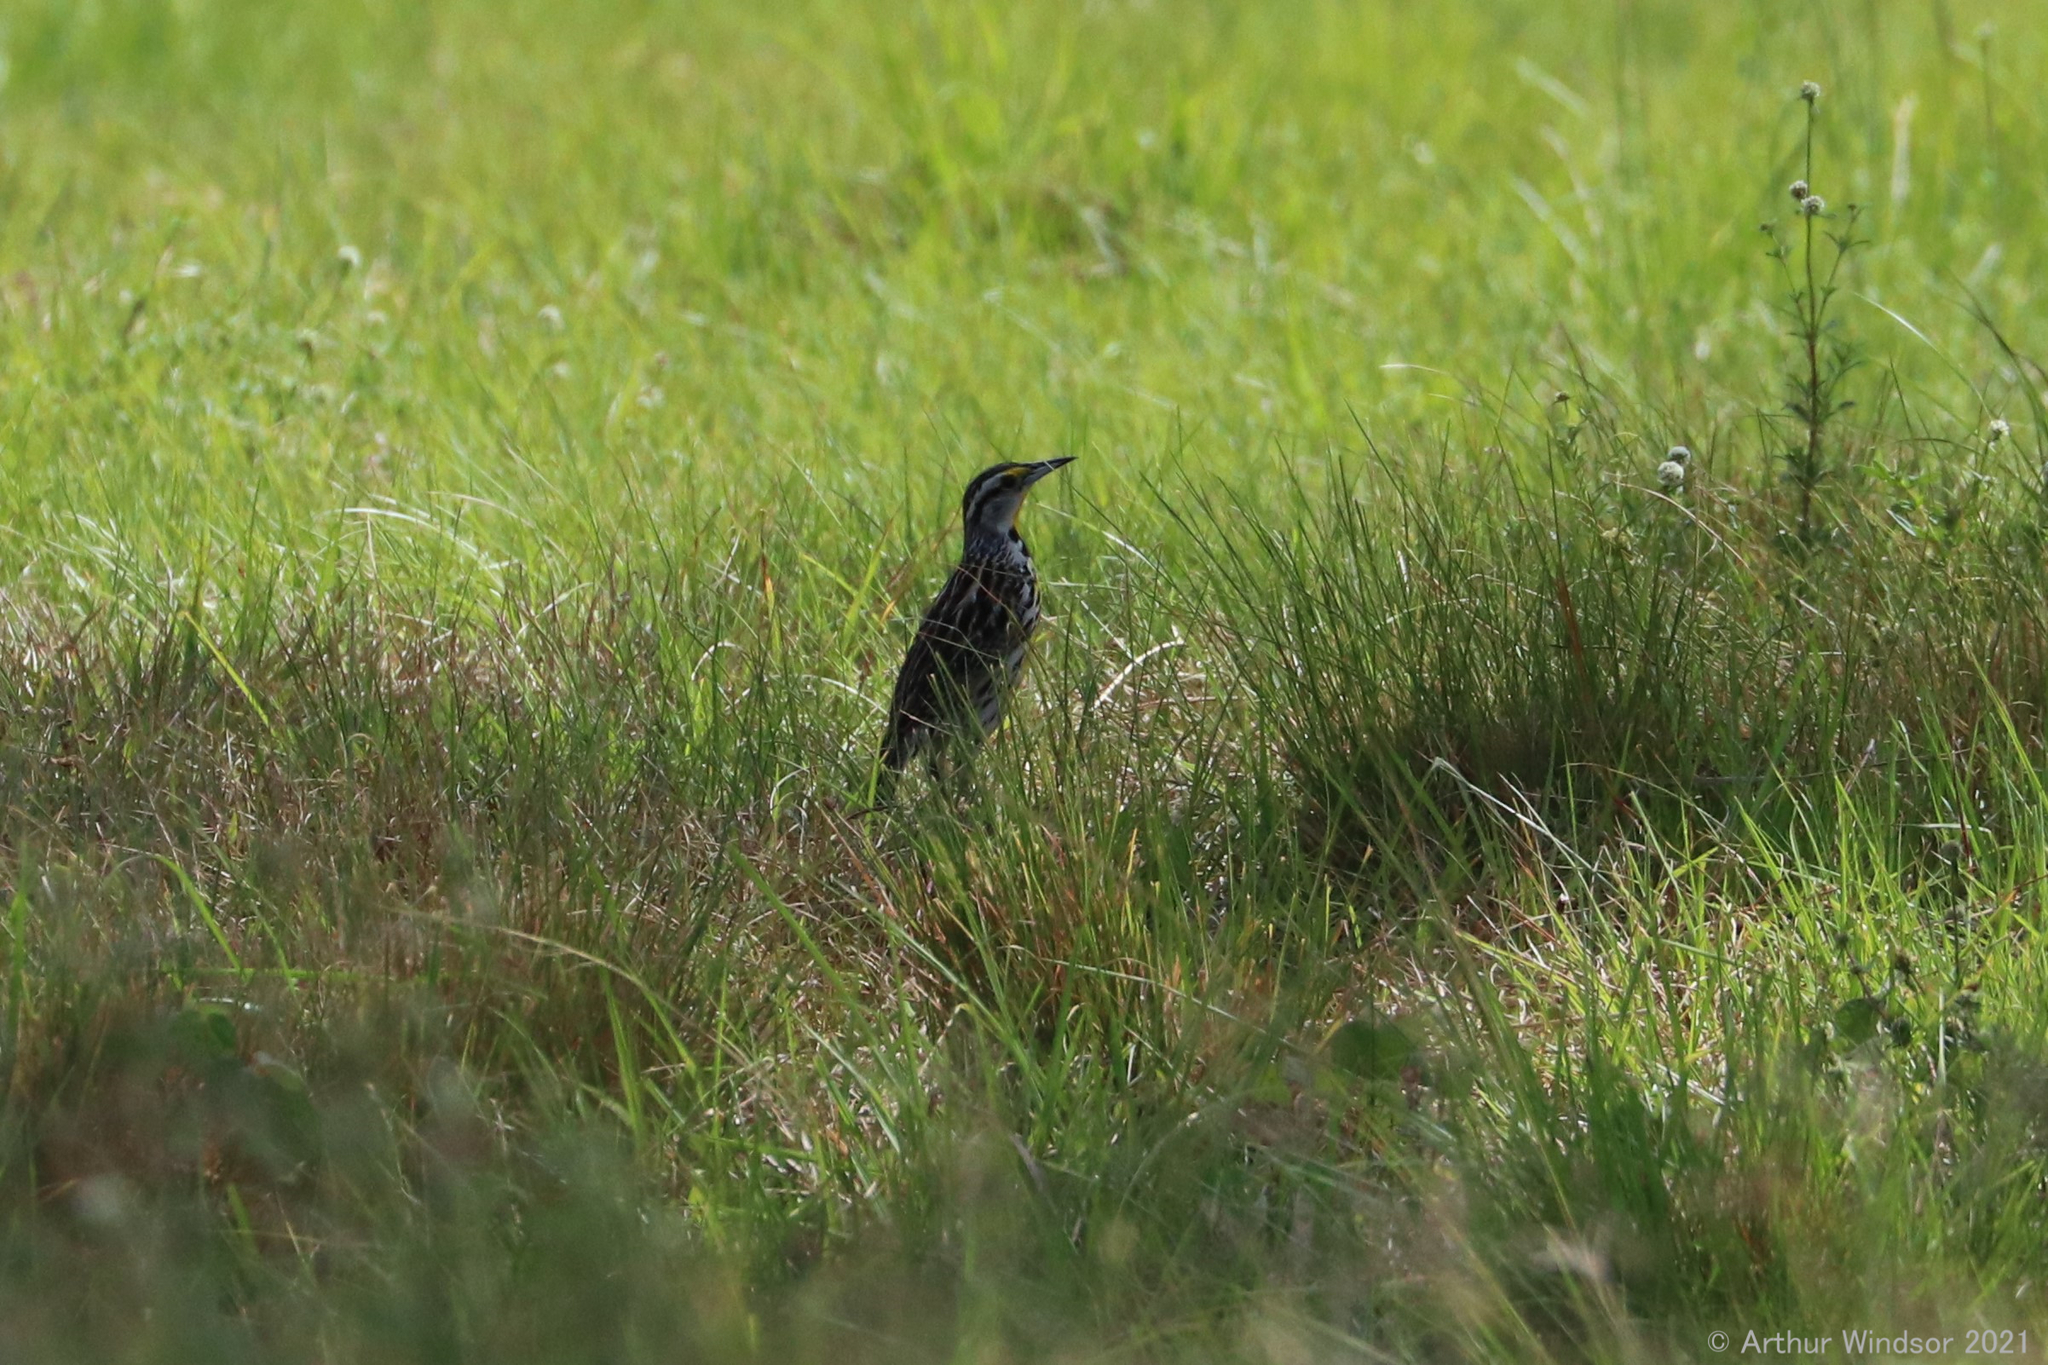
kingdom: Animalia
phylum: Chordata
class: Aves
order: Passeriformes
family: Icteridae
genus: Sturnella
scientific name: Sturnella magna
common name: Eastern meadowlark
